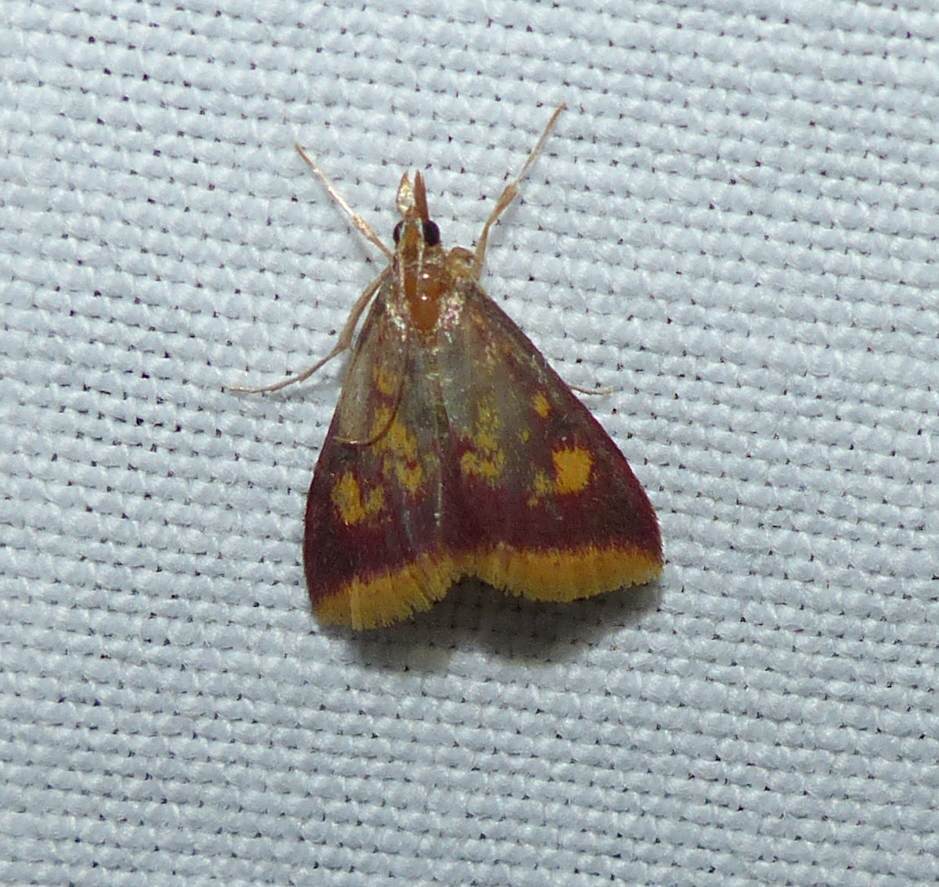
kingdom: Animalia
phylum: Arthropoda
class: Insecta
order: Lepidoptera
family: Crambidae
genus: Pyrausta
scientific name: Pyrausta acrionalis
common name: Mint-loving pyrausta moth
